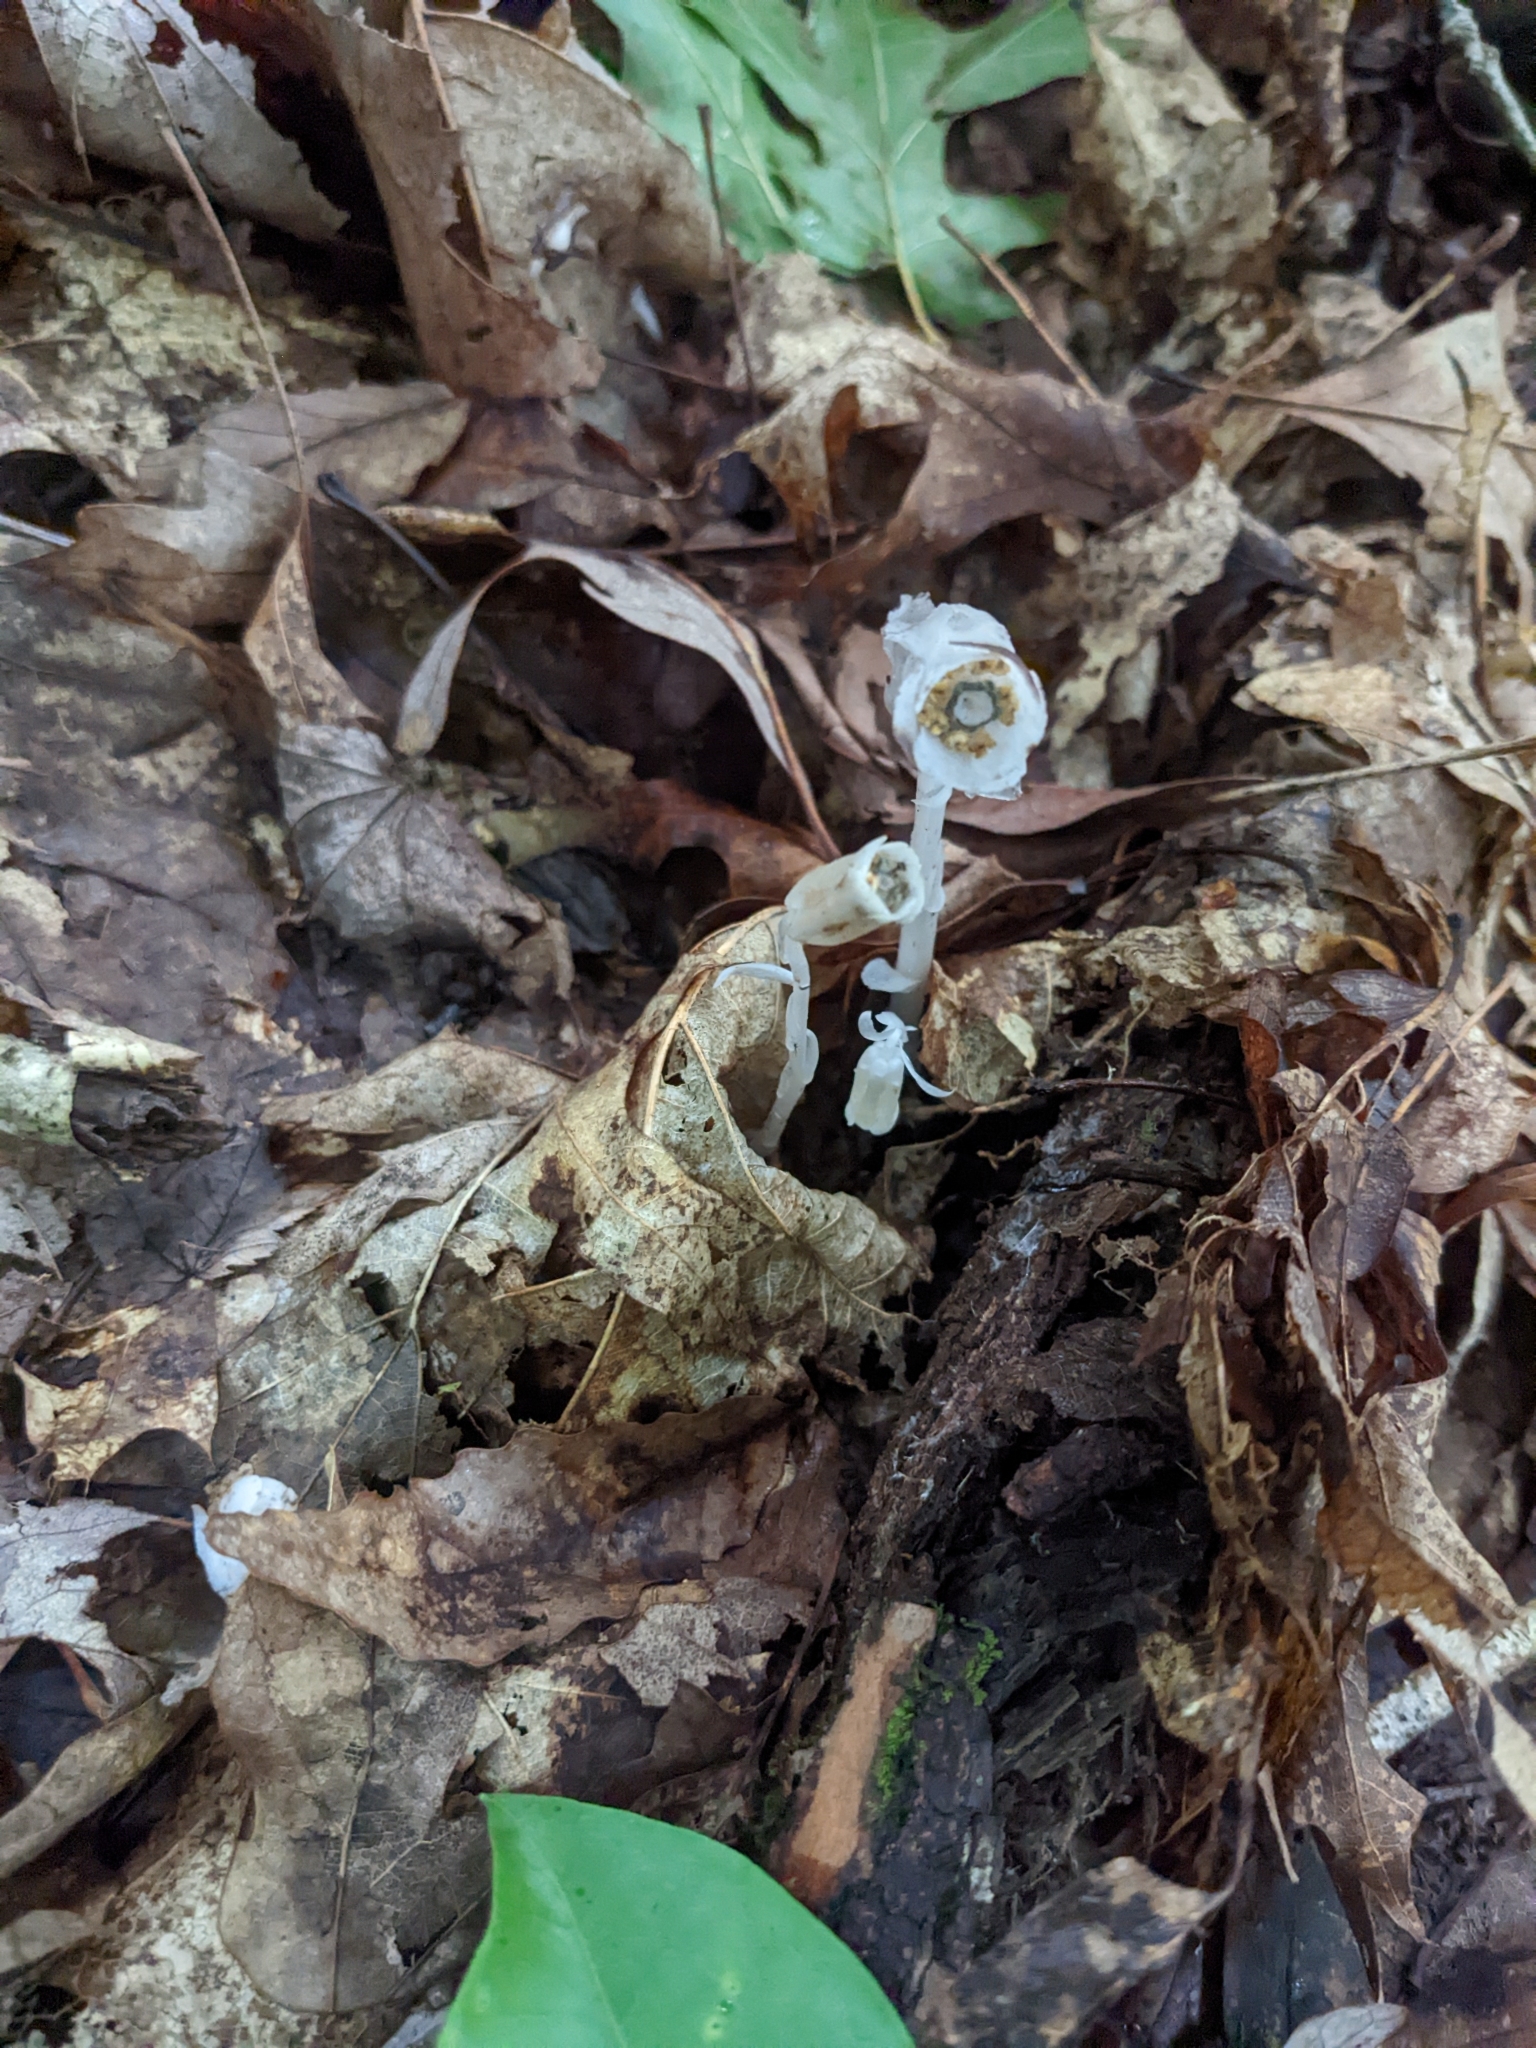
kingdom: Plantae
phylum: Tracheophyta
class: Magnoliopsida
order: Ericales
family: Ericaceae
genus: Monotropa
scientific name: Monotropa uniflora
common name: Convulsion root
